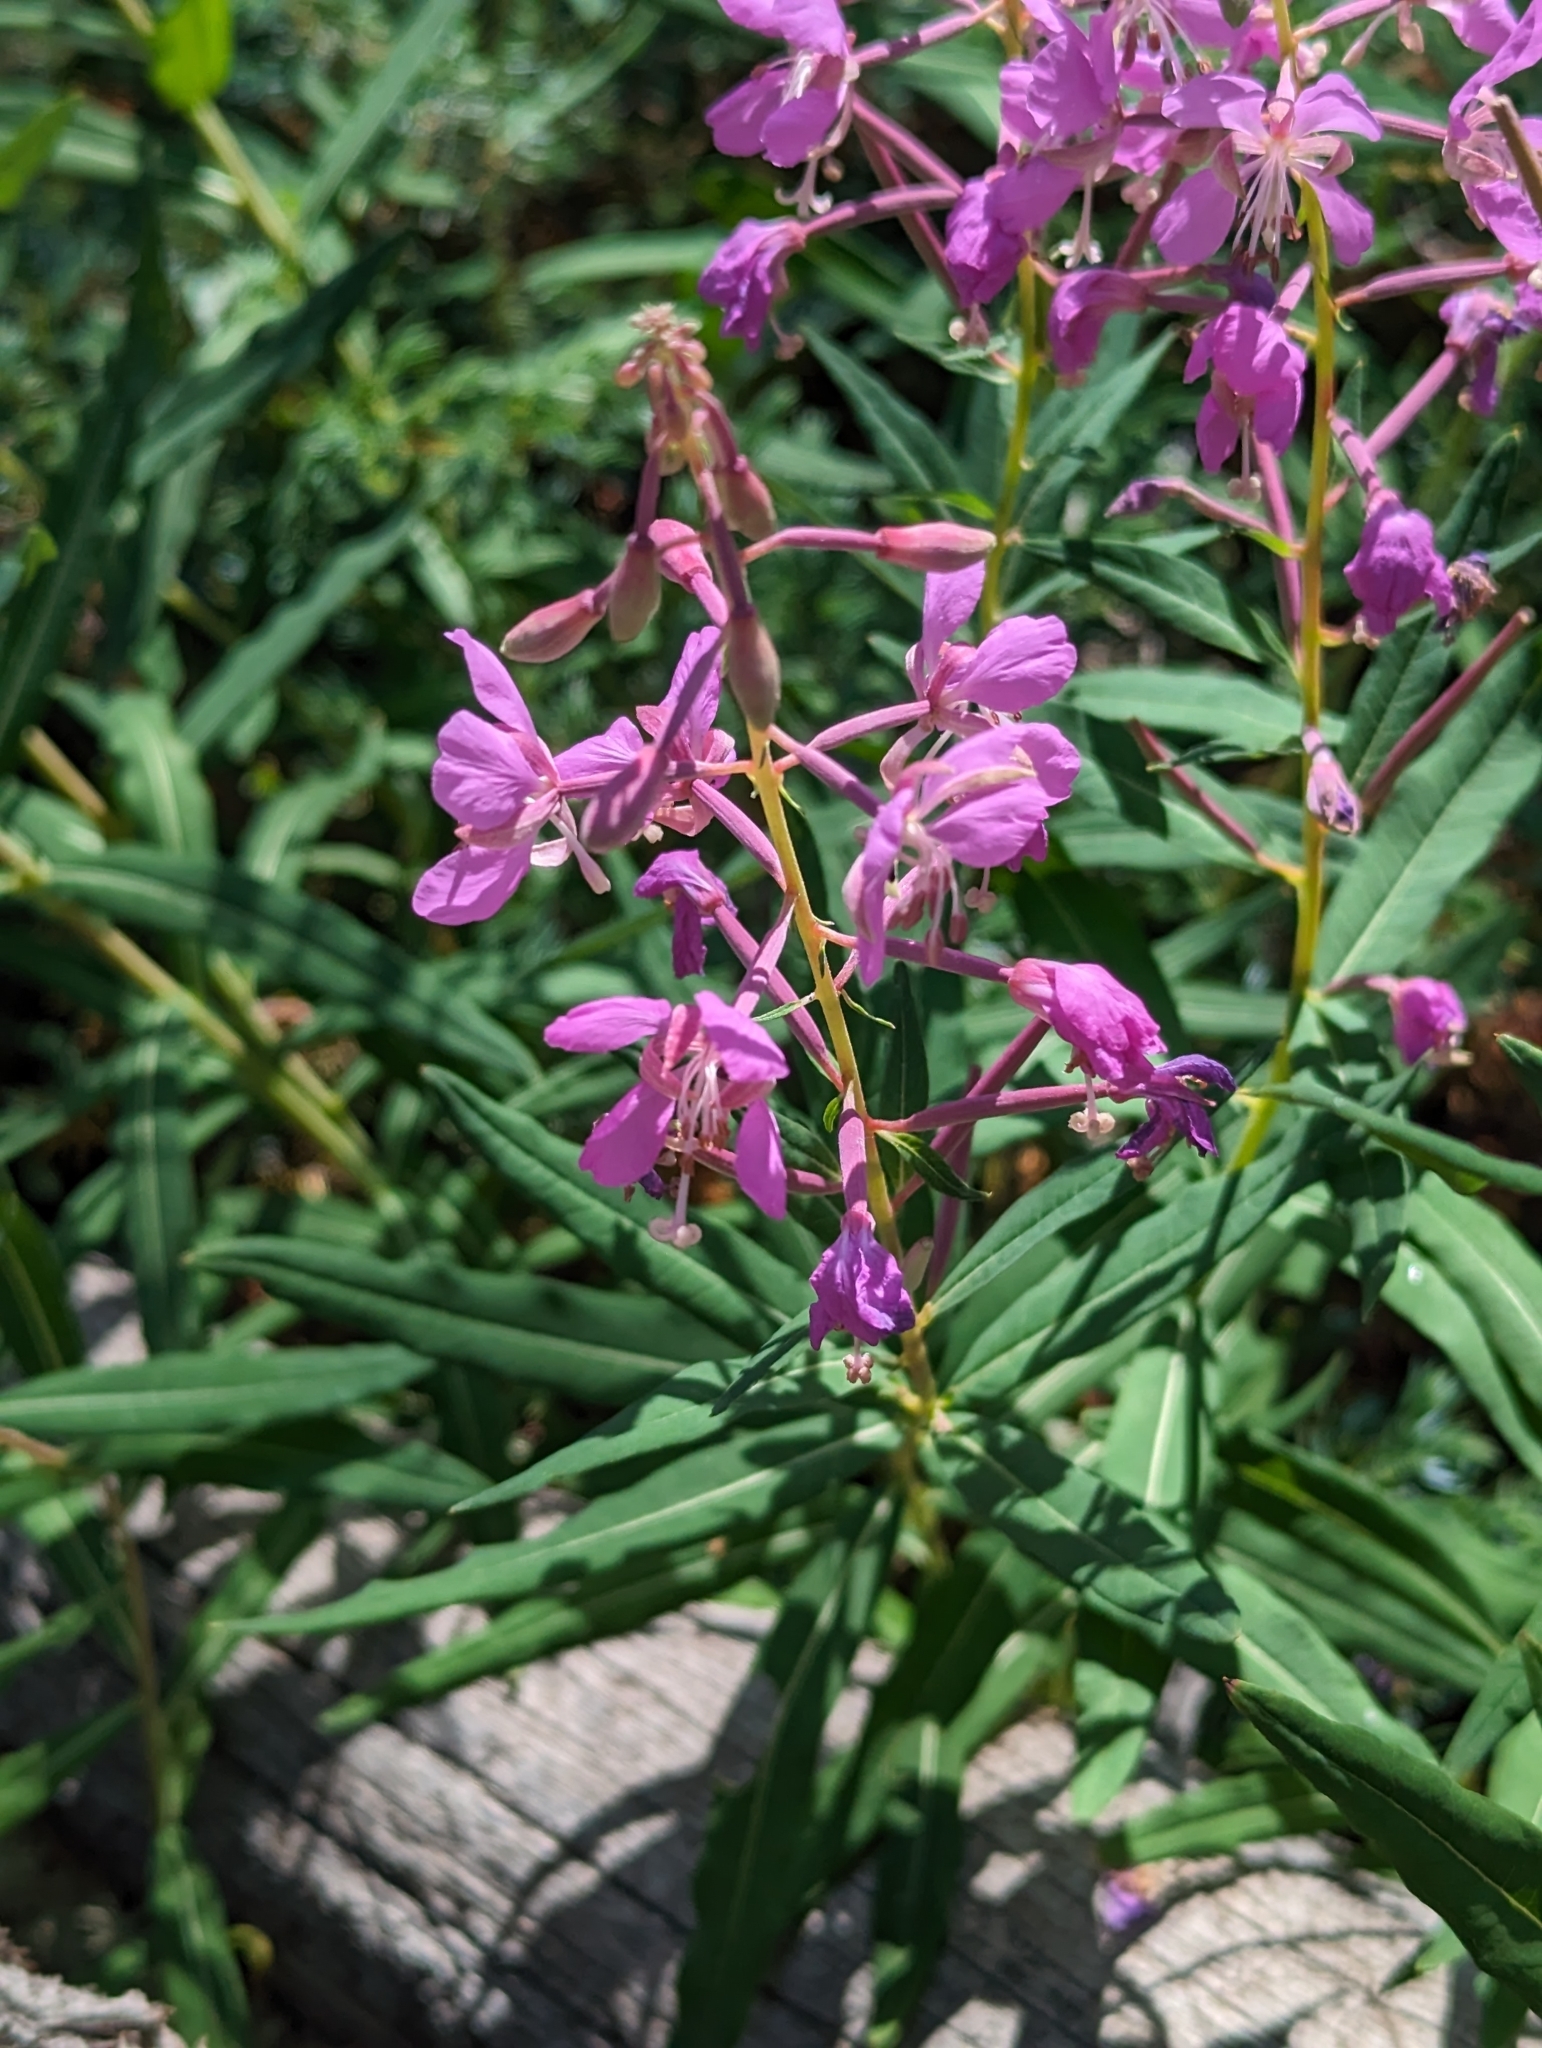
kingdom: Plantae
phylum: Tracheophyta
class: Magnoliopsida
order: Myrtales
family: Onagraceae
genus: Chamaenerion
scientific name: Chamaenerion angustifolium
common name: Fireweed
